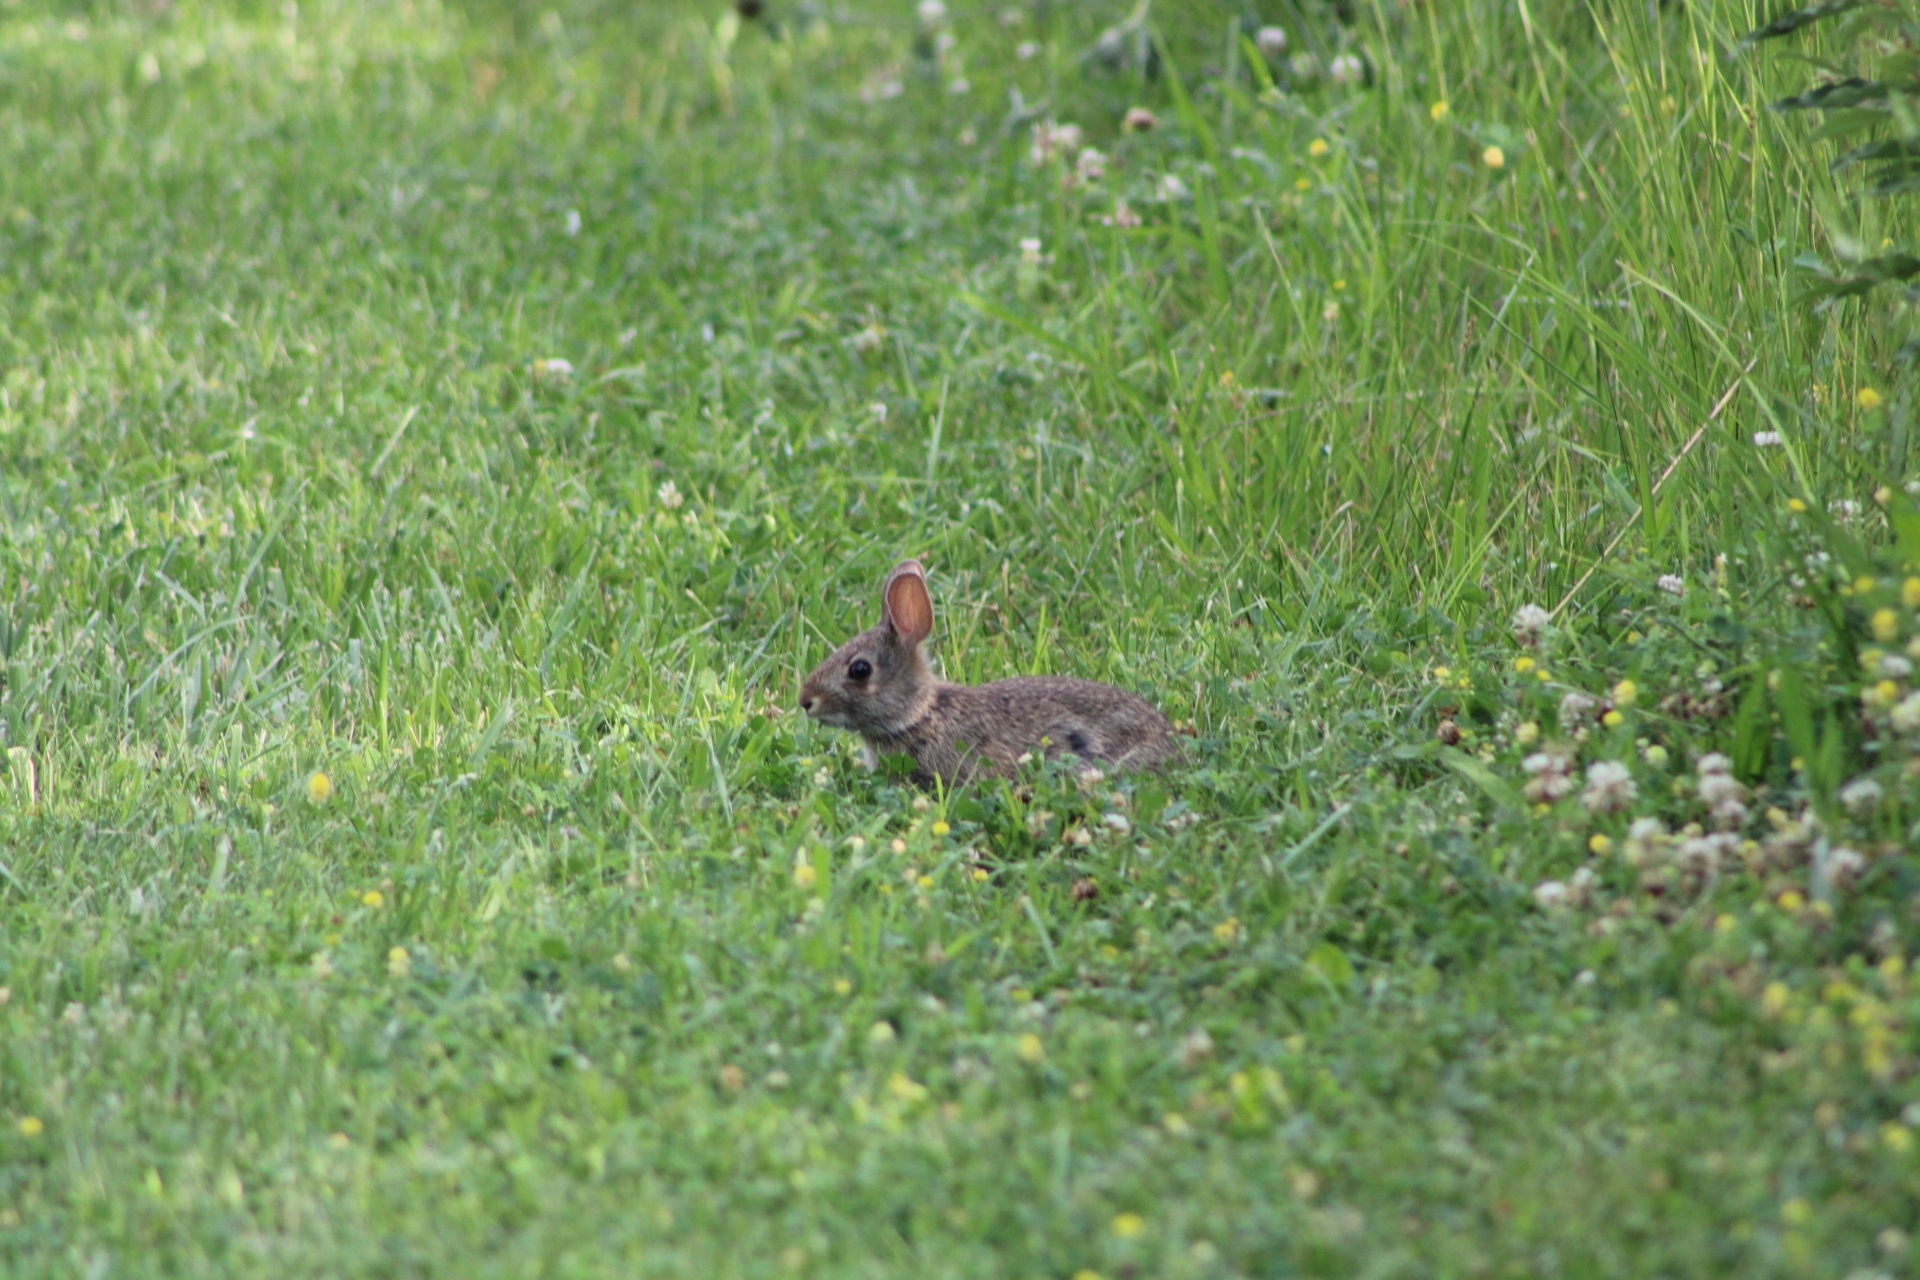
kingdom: Animalia
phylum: Chordata
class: Mammalia
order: Lagomorpha
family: Leporidae
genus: Sylvilagus
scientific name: Sylvilagus floridanus
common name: Eastern cottontail
